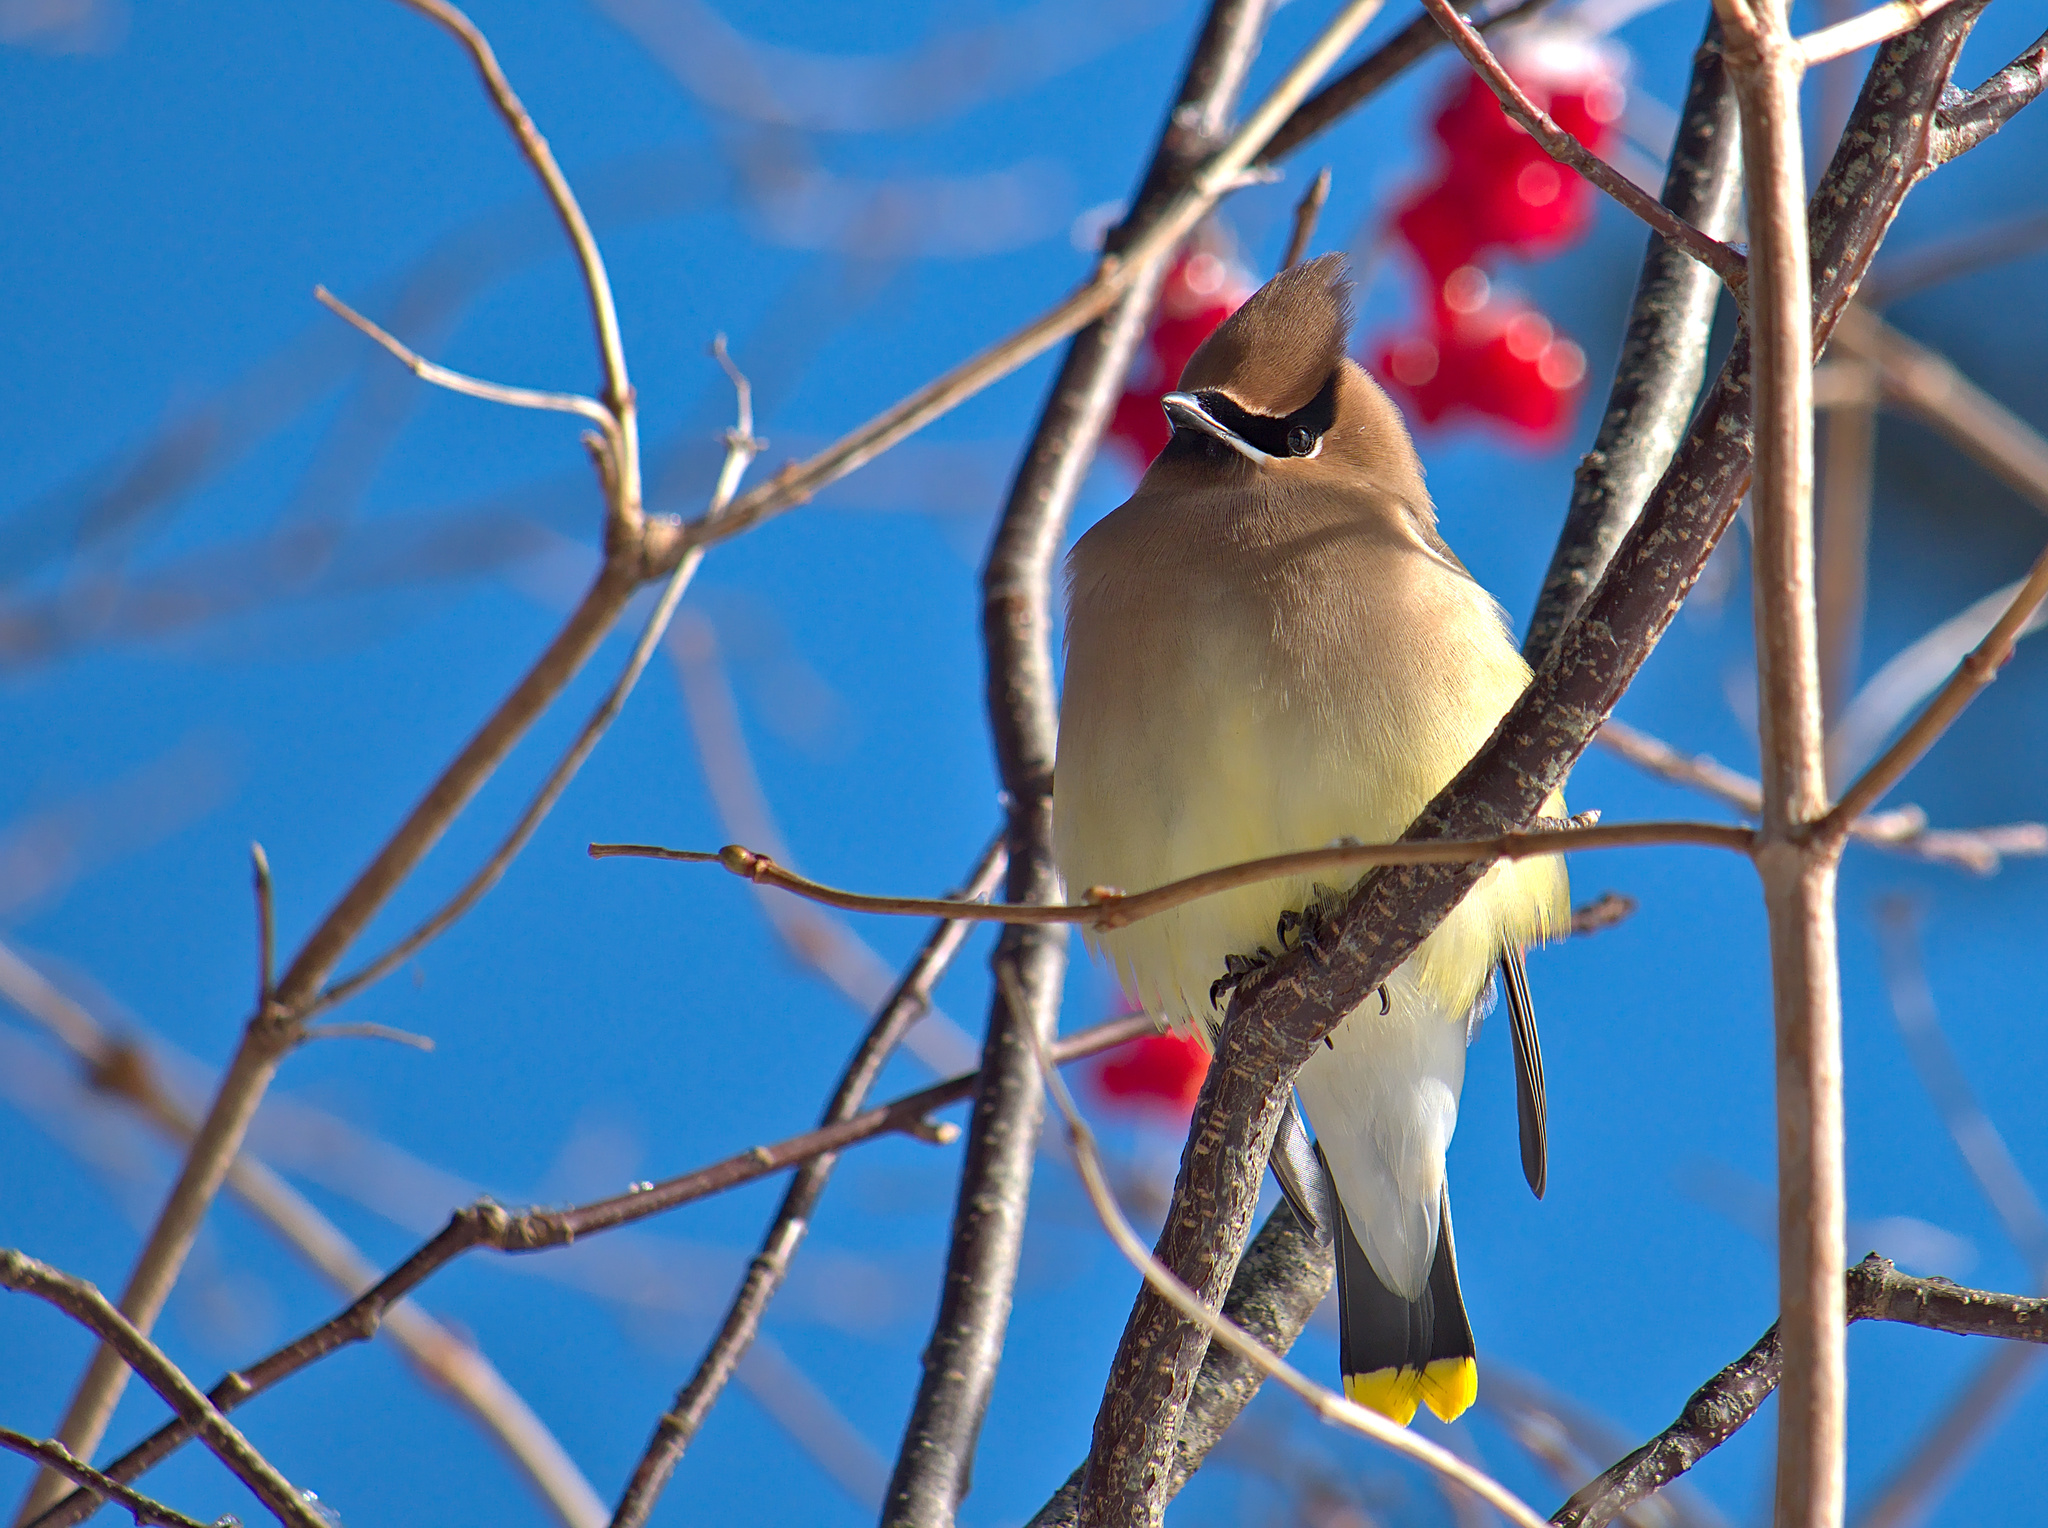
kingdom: Animalia
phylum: Chordata
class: Aves
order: Passeriformes
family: Bombycillidae
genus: Bombycilla
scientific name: Bombycilla cedrorum
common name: Cedar waxwing
